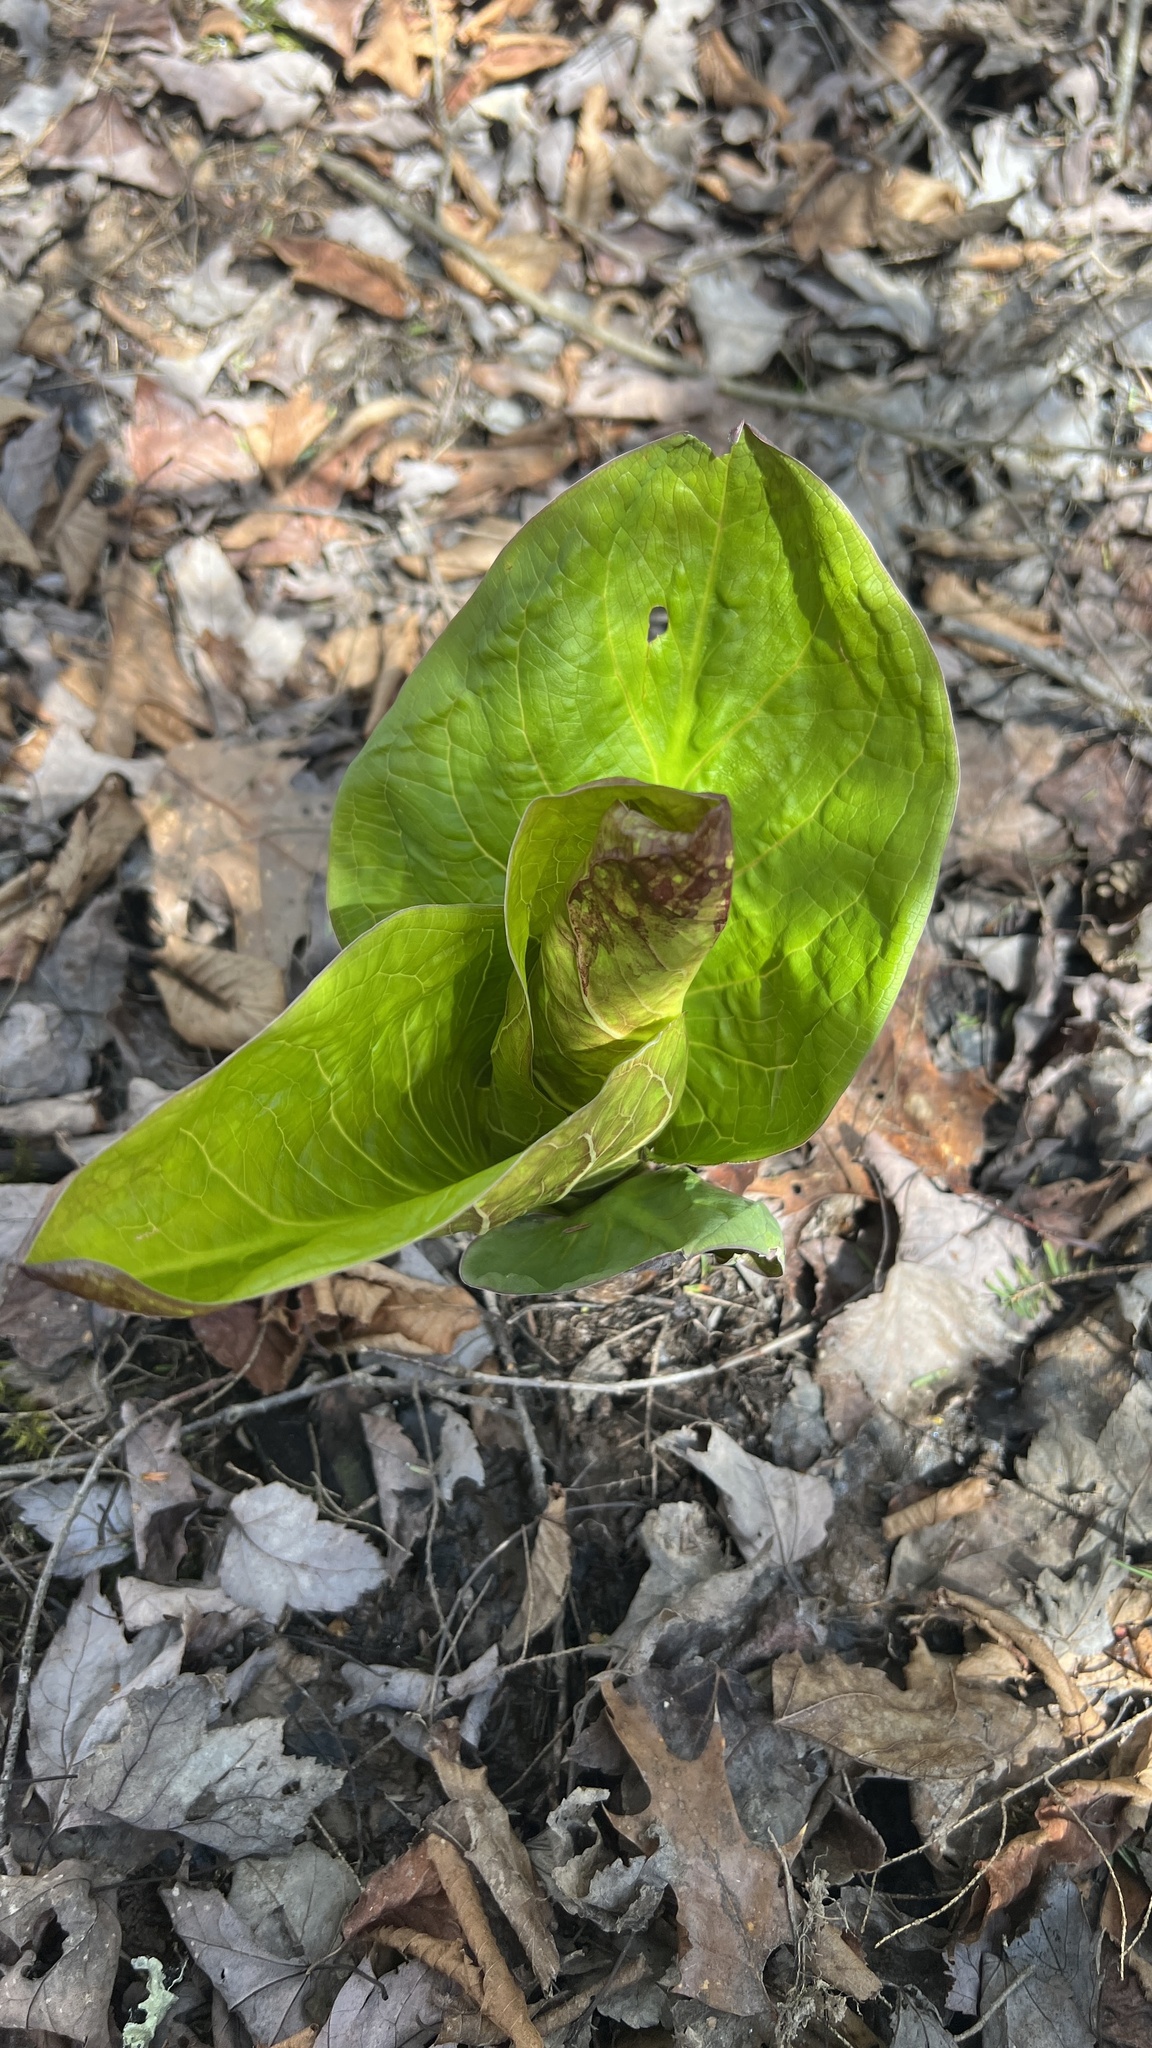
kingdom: Plantae
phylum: Tracheophyta
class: Liliopsida
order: Alismatales
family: Araceae
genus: Symplocarpus
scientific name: Symplocarpus foetidus
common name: Eastern skunk cabbage
